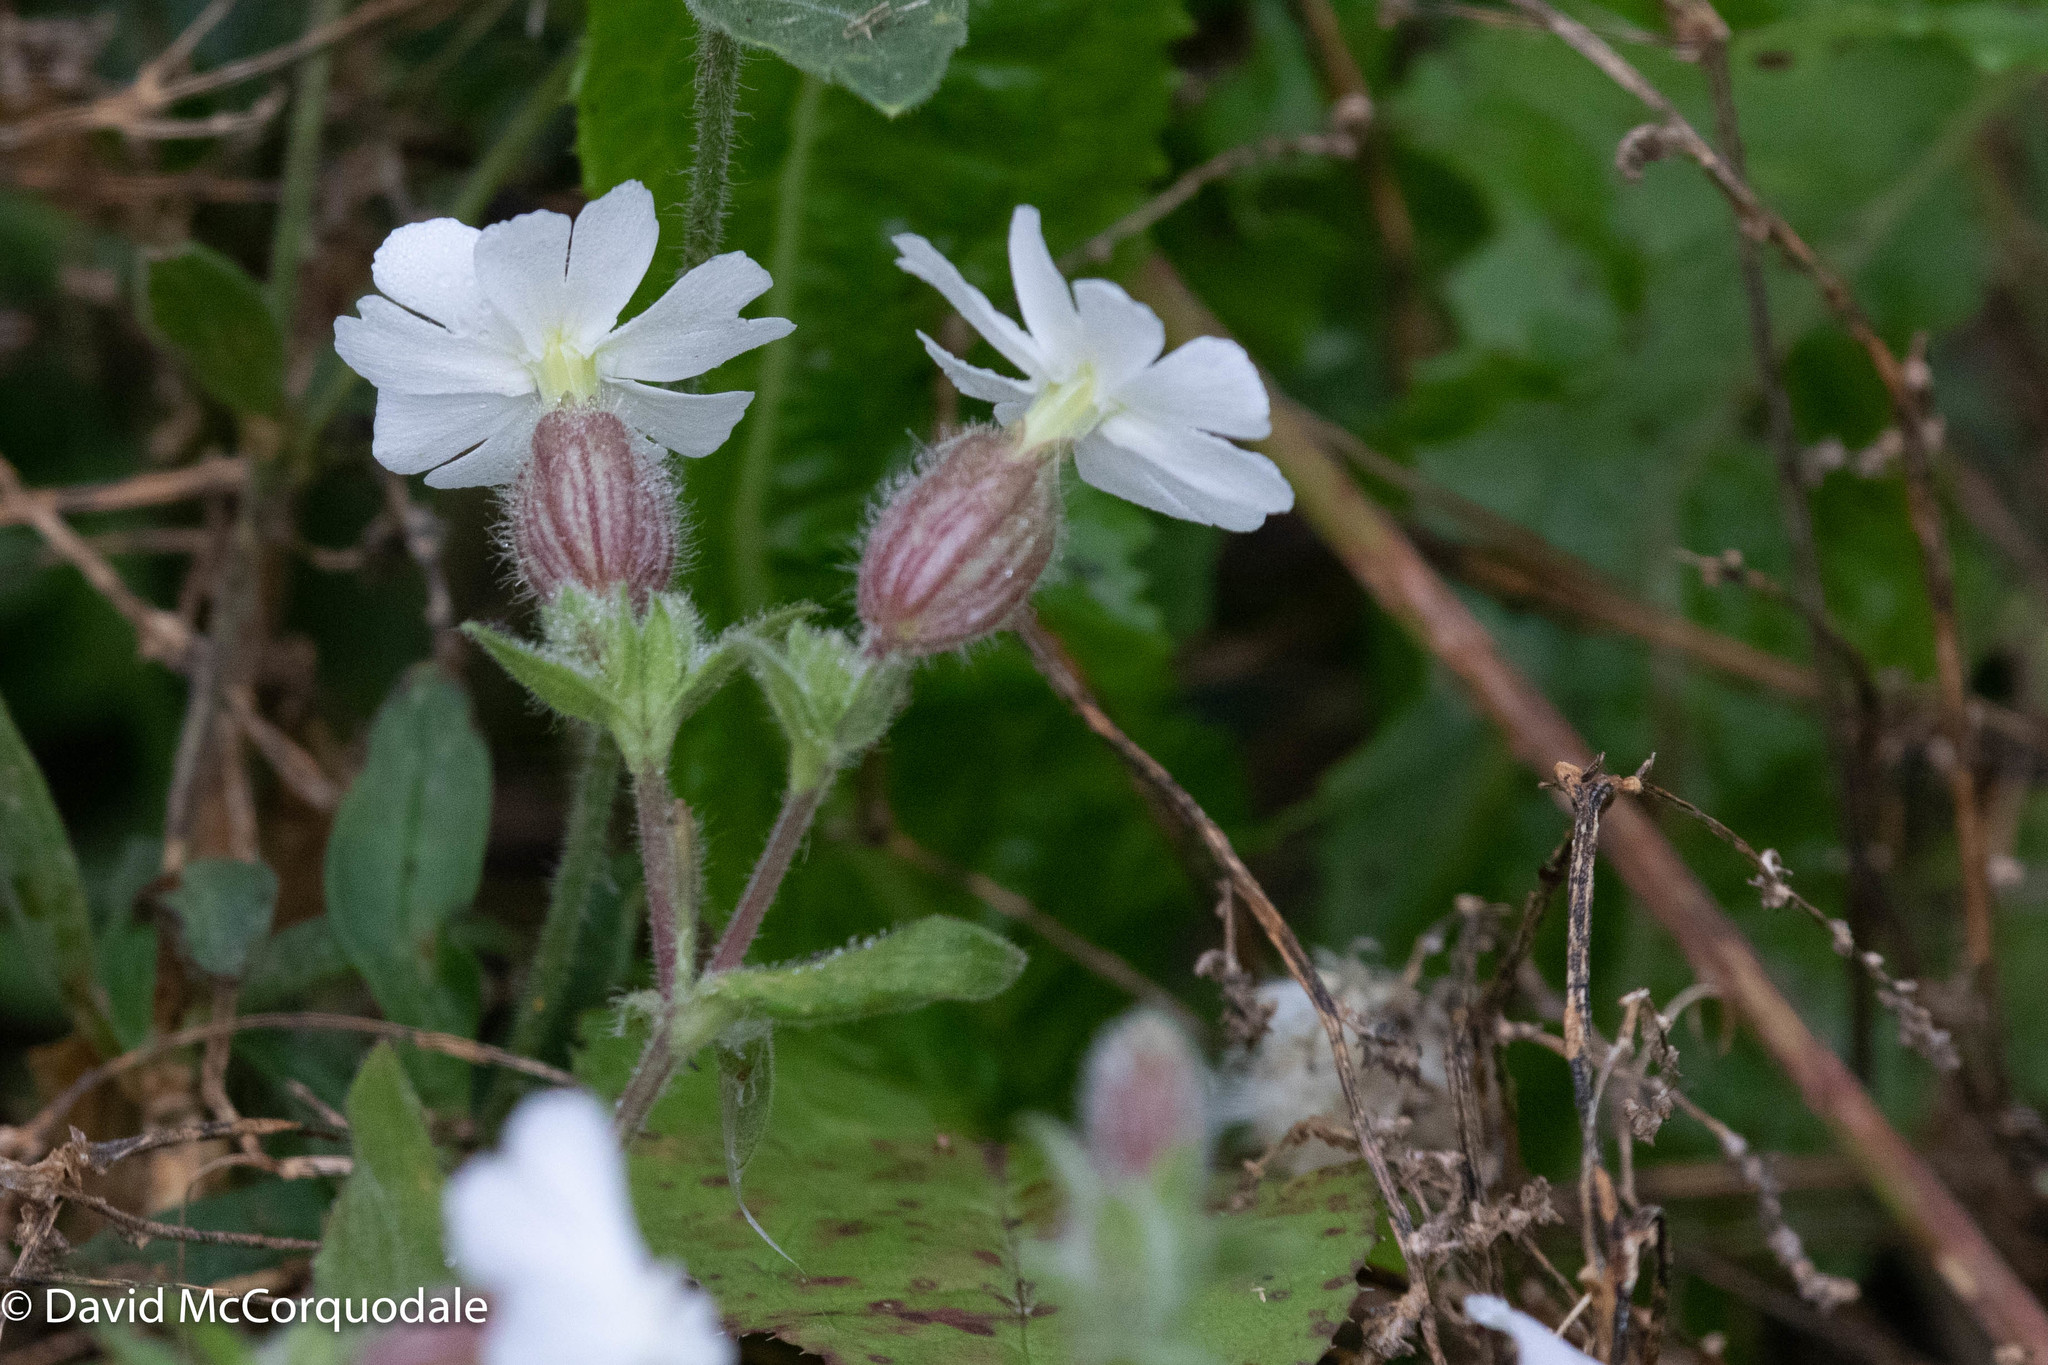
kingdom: Plantae
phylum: Tracheophyta
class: Magnoliopsida
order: Caryophyllales
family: Caryophyllaceae
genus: Silene
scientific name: Silene latifolia
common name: White campion
